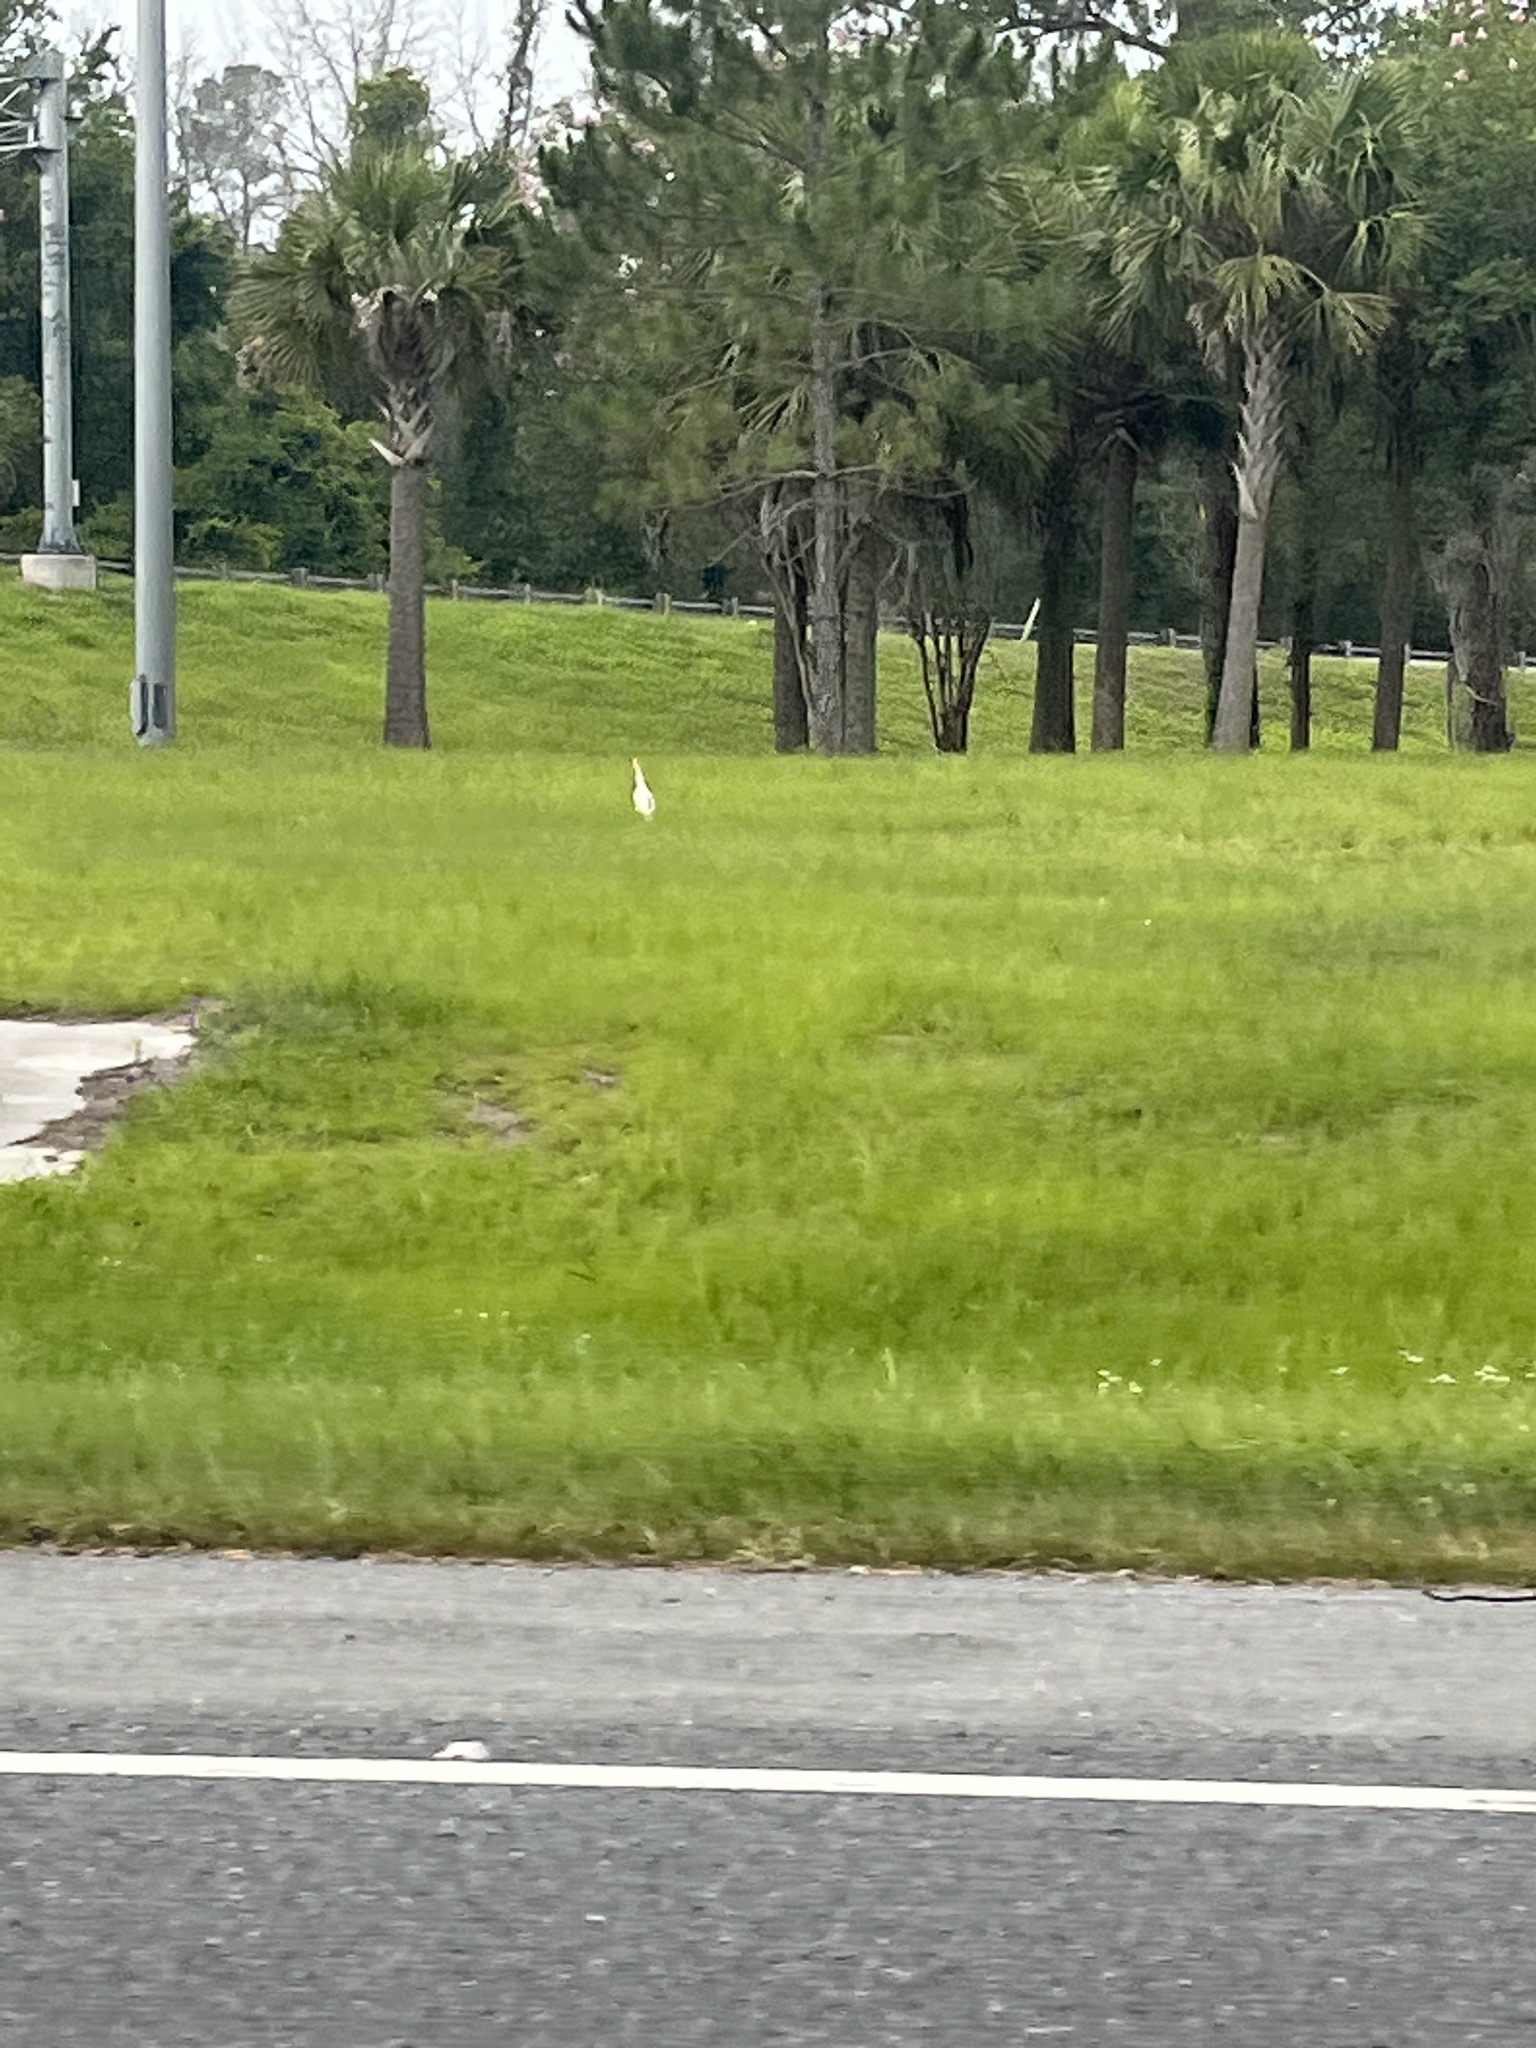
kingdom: Animalia
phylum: Chordata
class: Aves
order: Pelecaniformes
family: Ardeidae
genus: Bubulcus
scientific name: Bubulcus ibis
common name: Cattle egret
